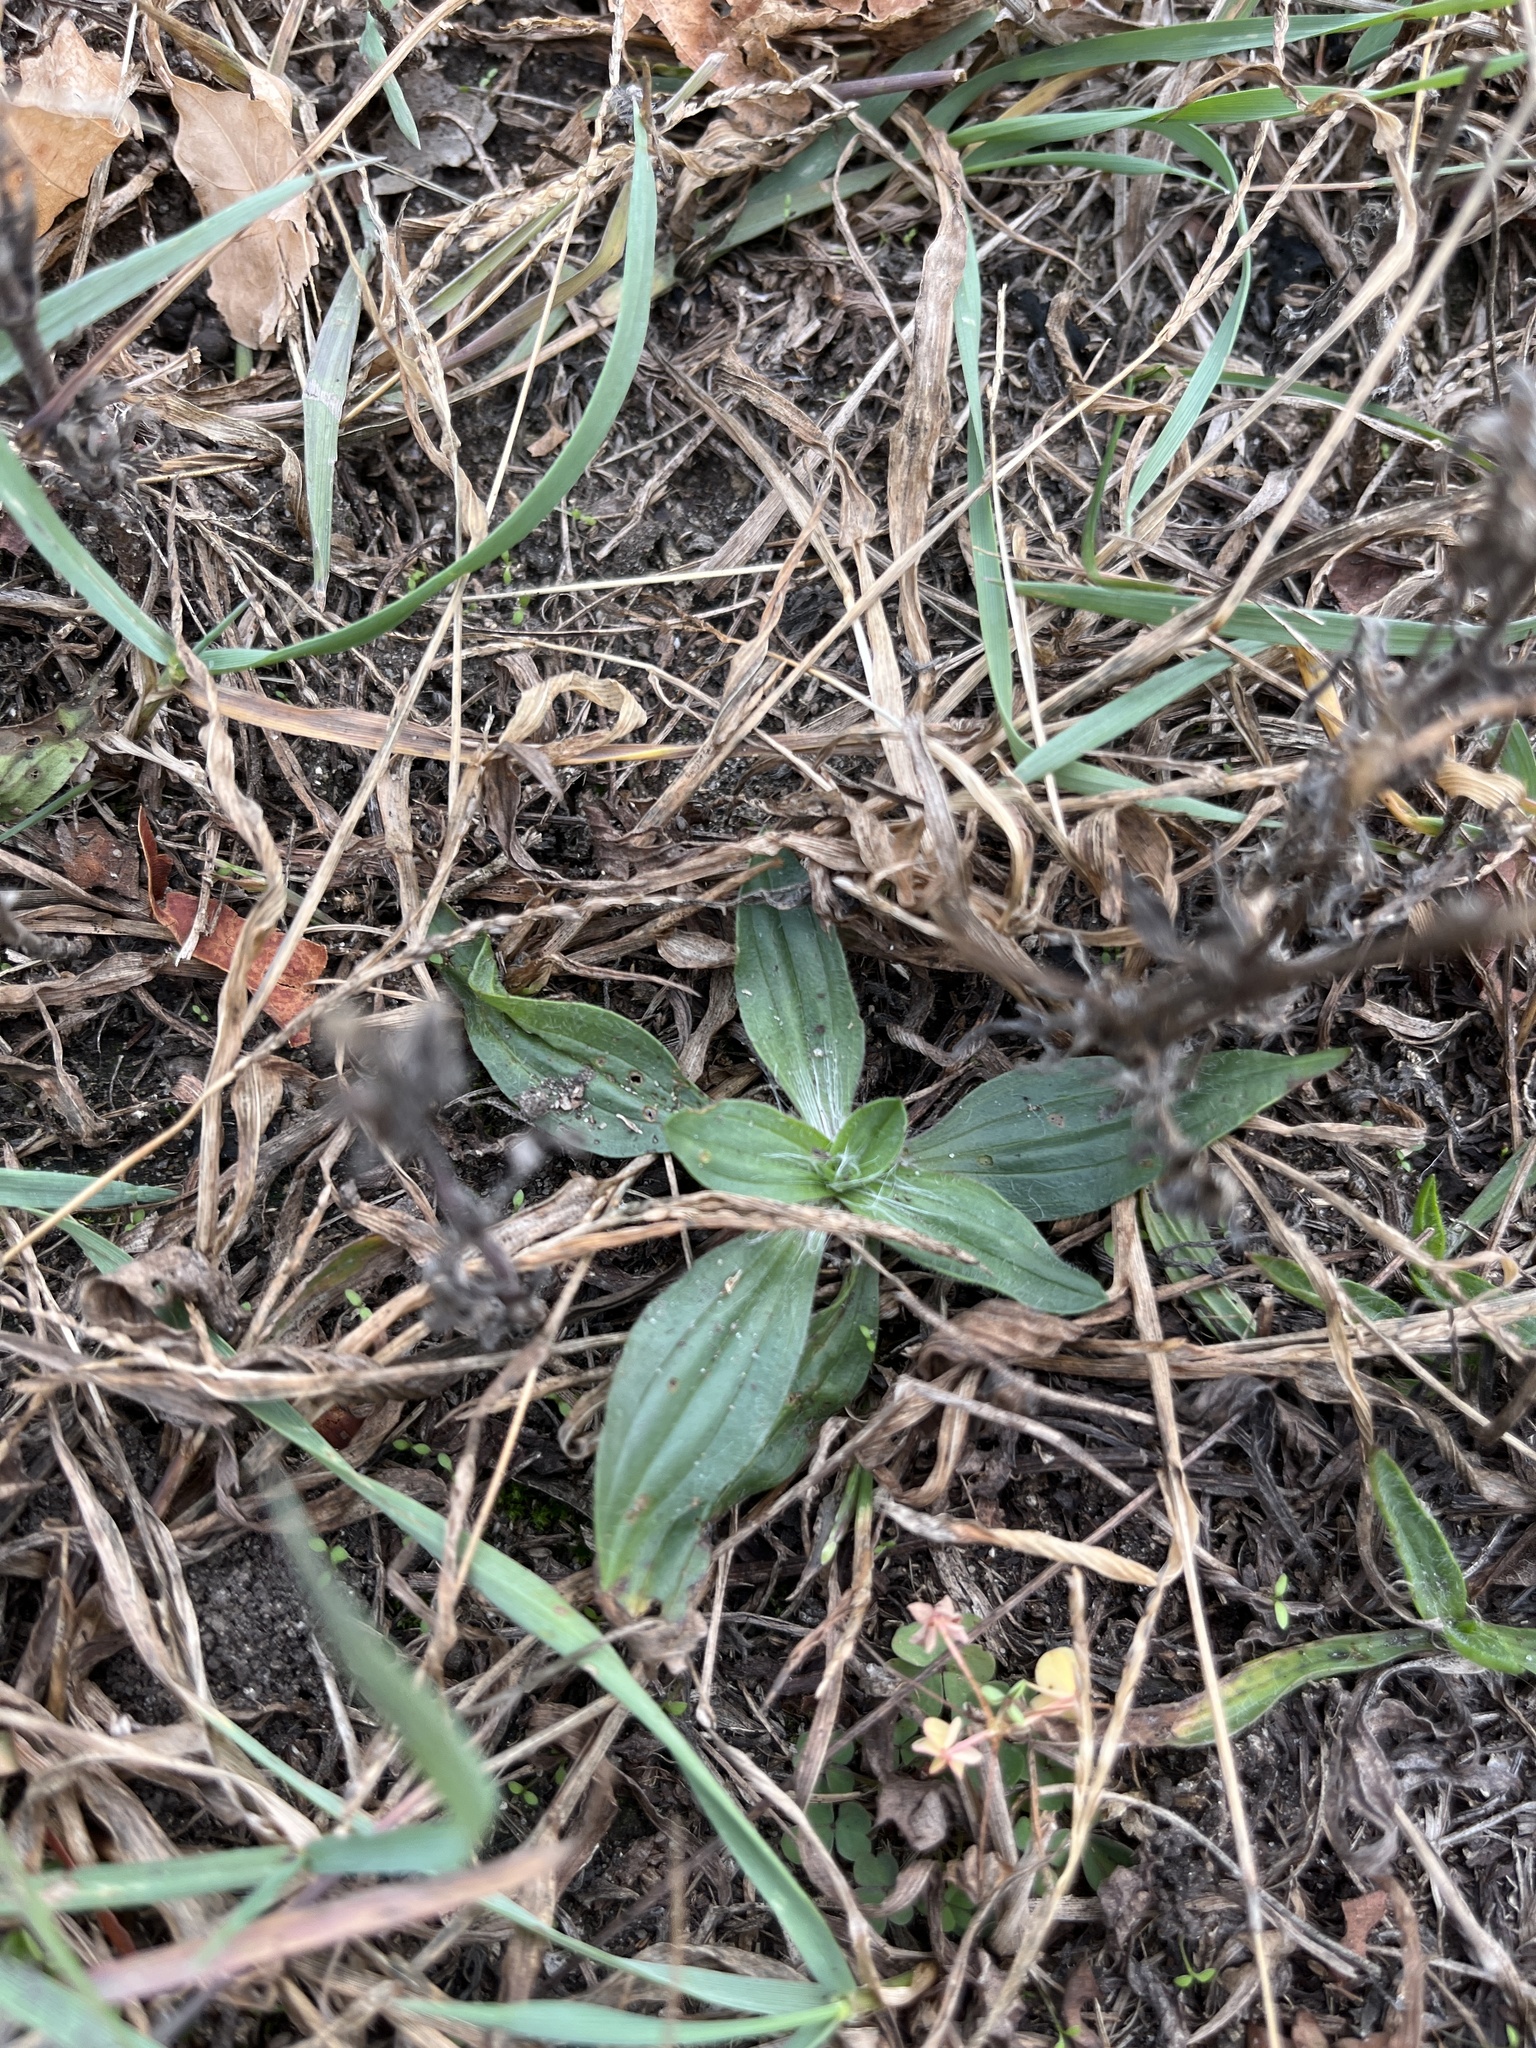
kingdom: Plantae
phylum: Tracheophyta
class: Magnoliopsida
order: Lamiales
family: Plantaginaceae
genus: Plantago
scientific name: Plantago lanceolata
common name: Ribwort plantain
